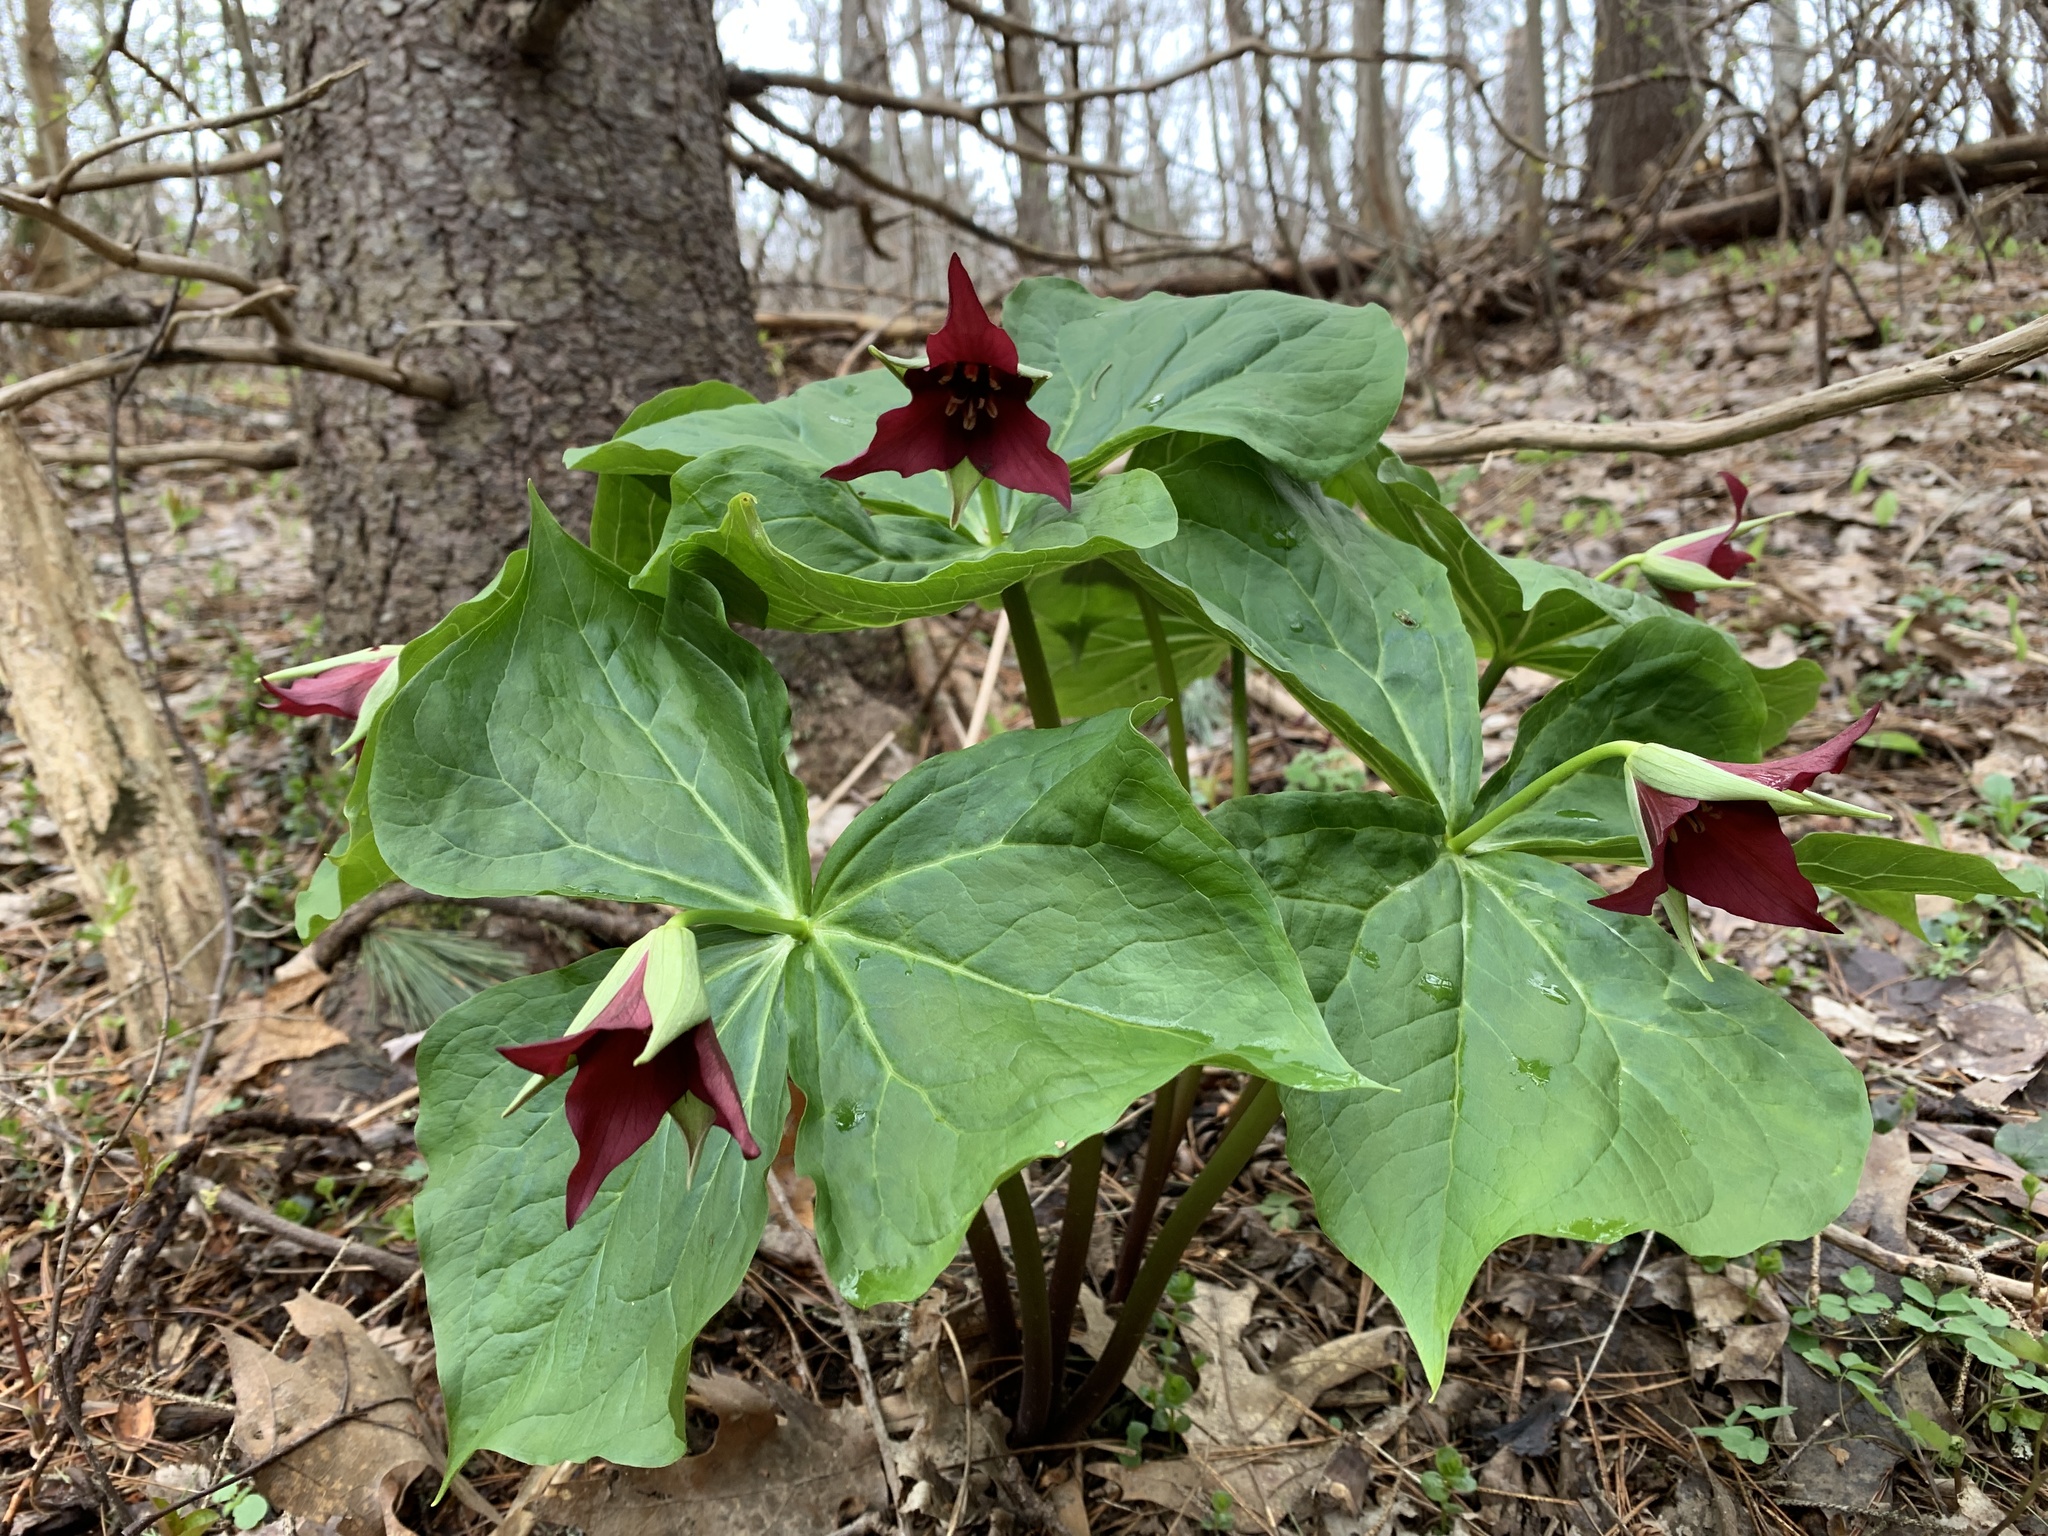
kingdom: Plantae
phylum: Tracheophyta
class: Liliopsida
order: Liliales
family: Melanthiaceae
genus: Trillium
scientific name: Trillium erectum
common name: Purple trillium
